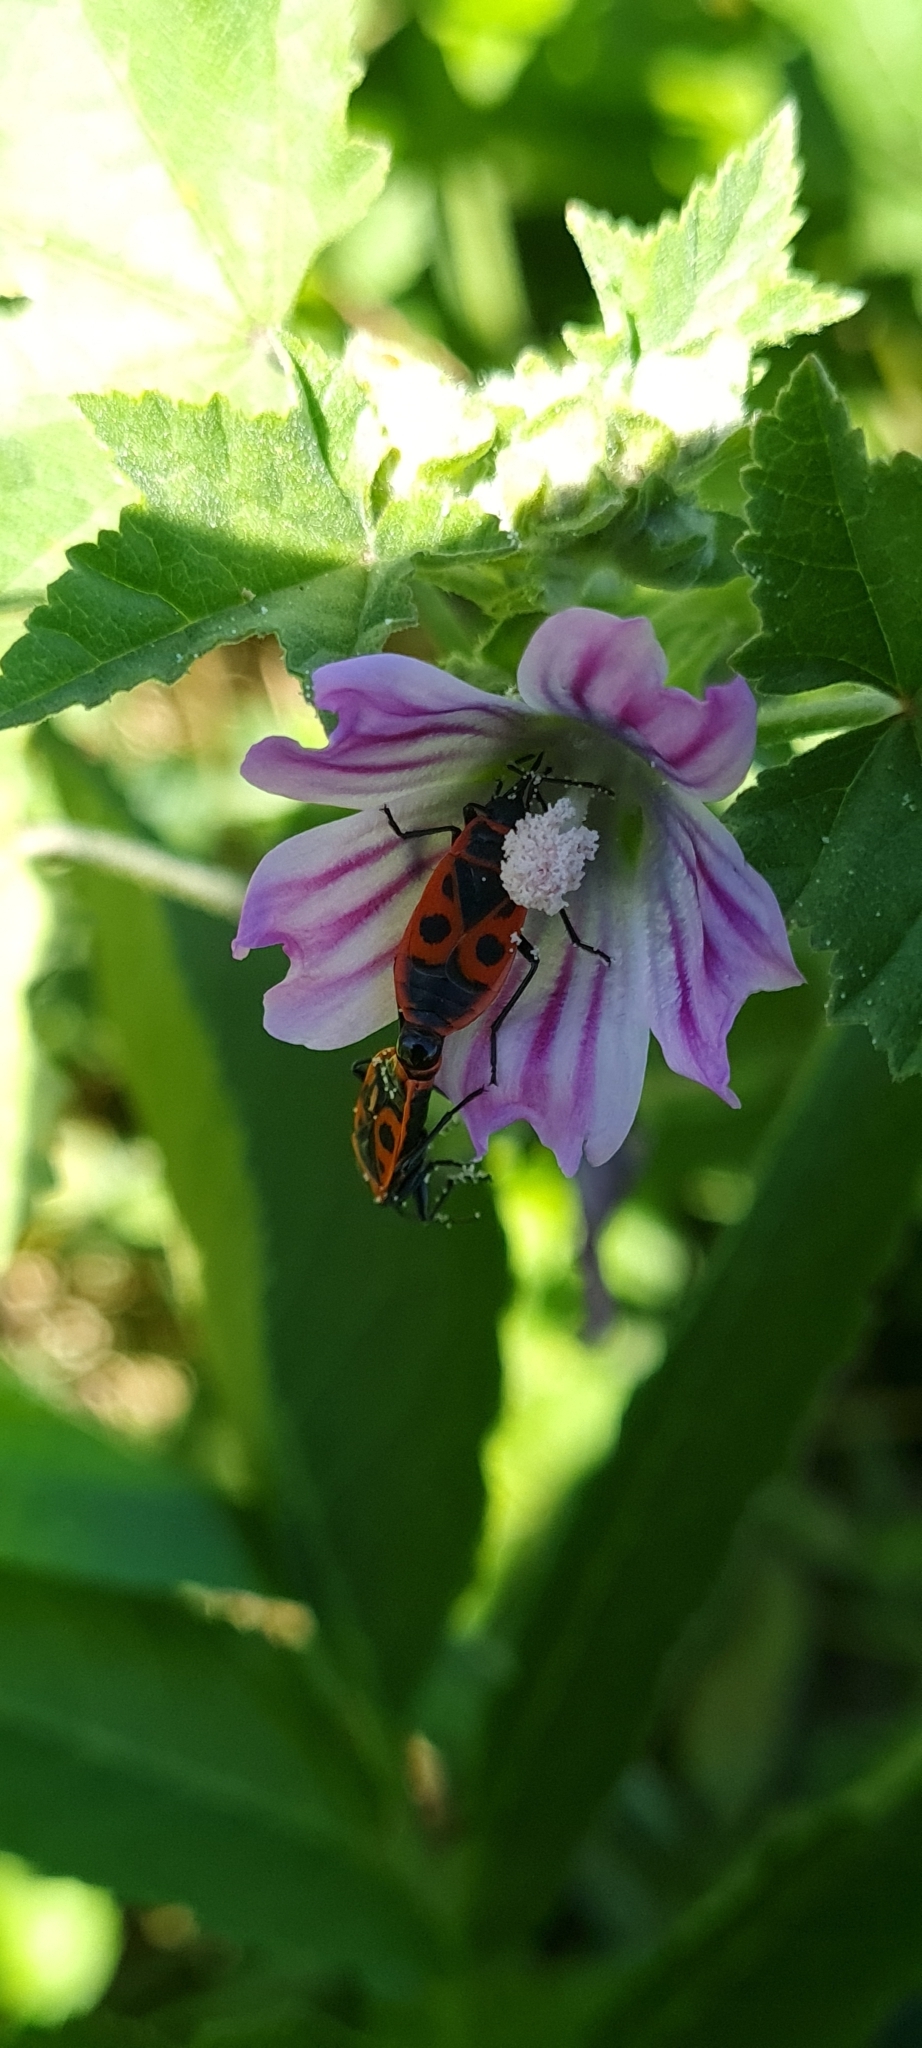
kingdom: Animalia
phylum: Arthropoda
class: Insecta
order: Hemiptera
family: Pyrrhocoridae
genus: Pyrrhocoris
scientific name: Pyrrhocoris apterus
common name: Firebug
